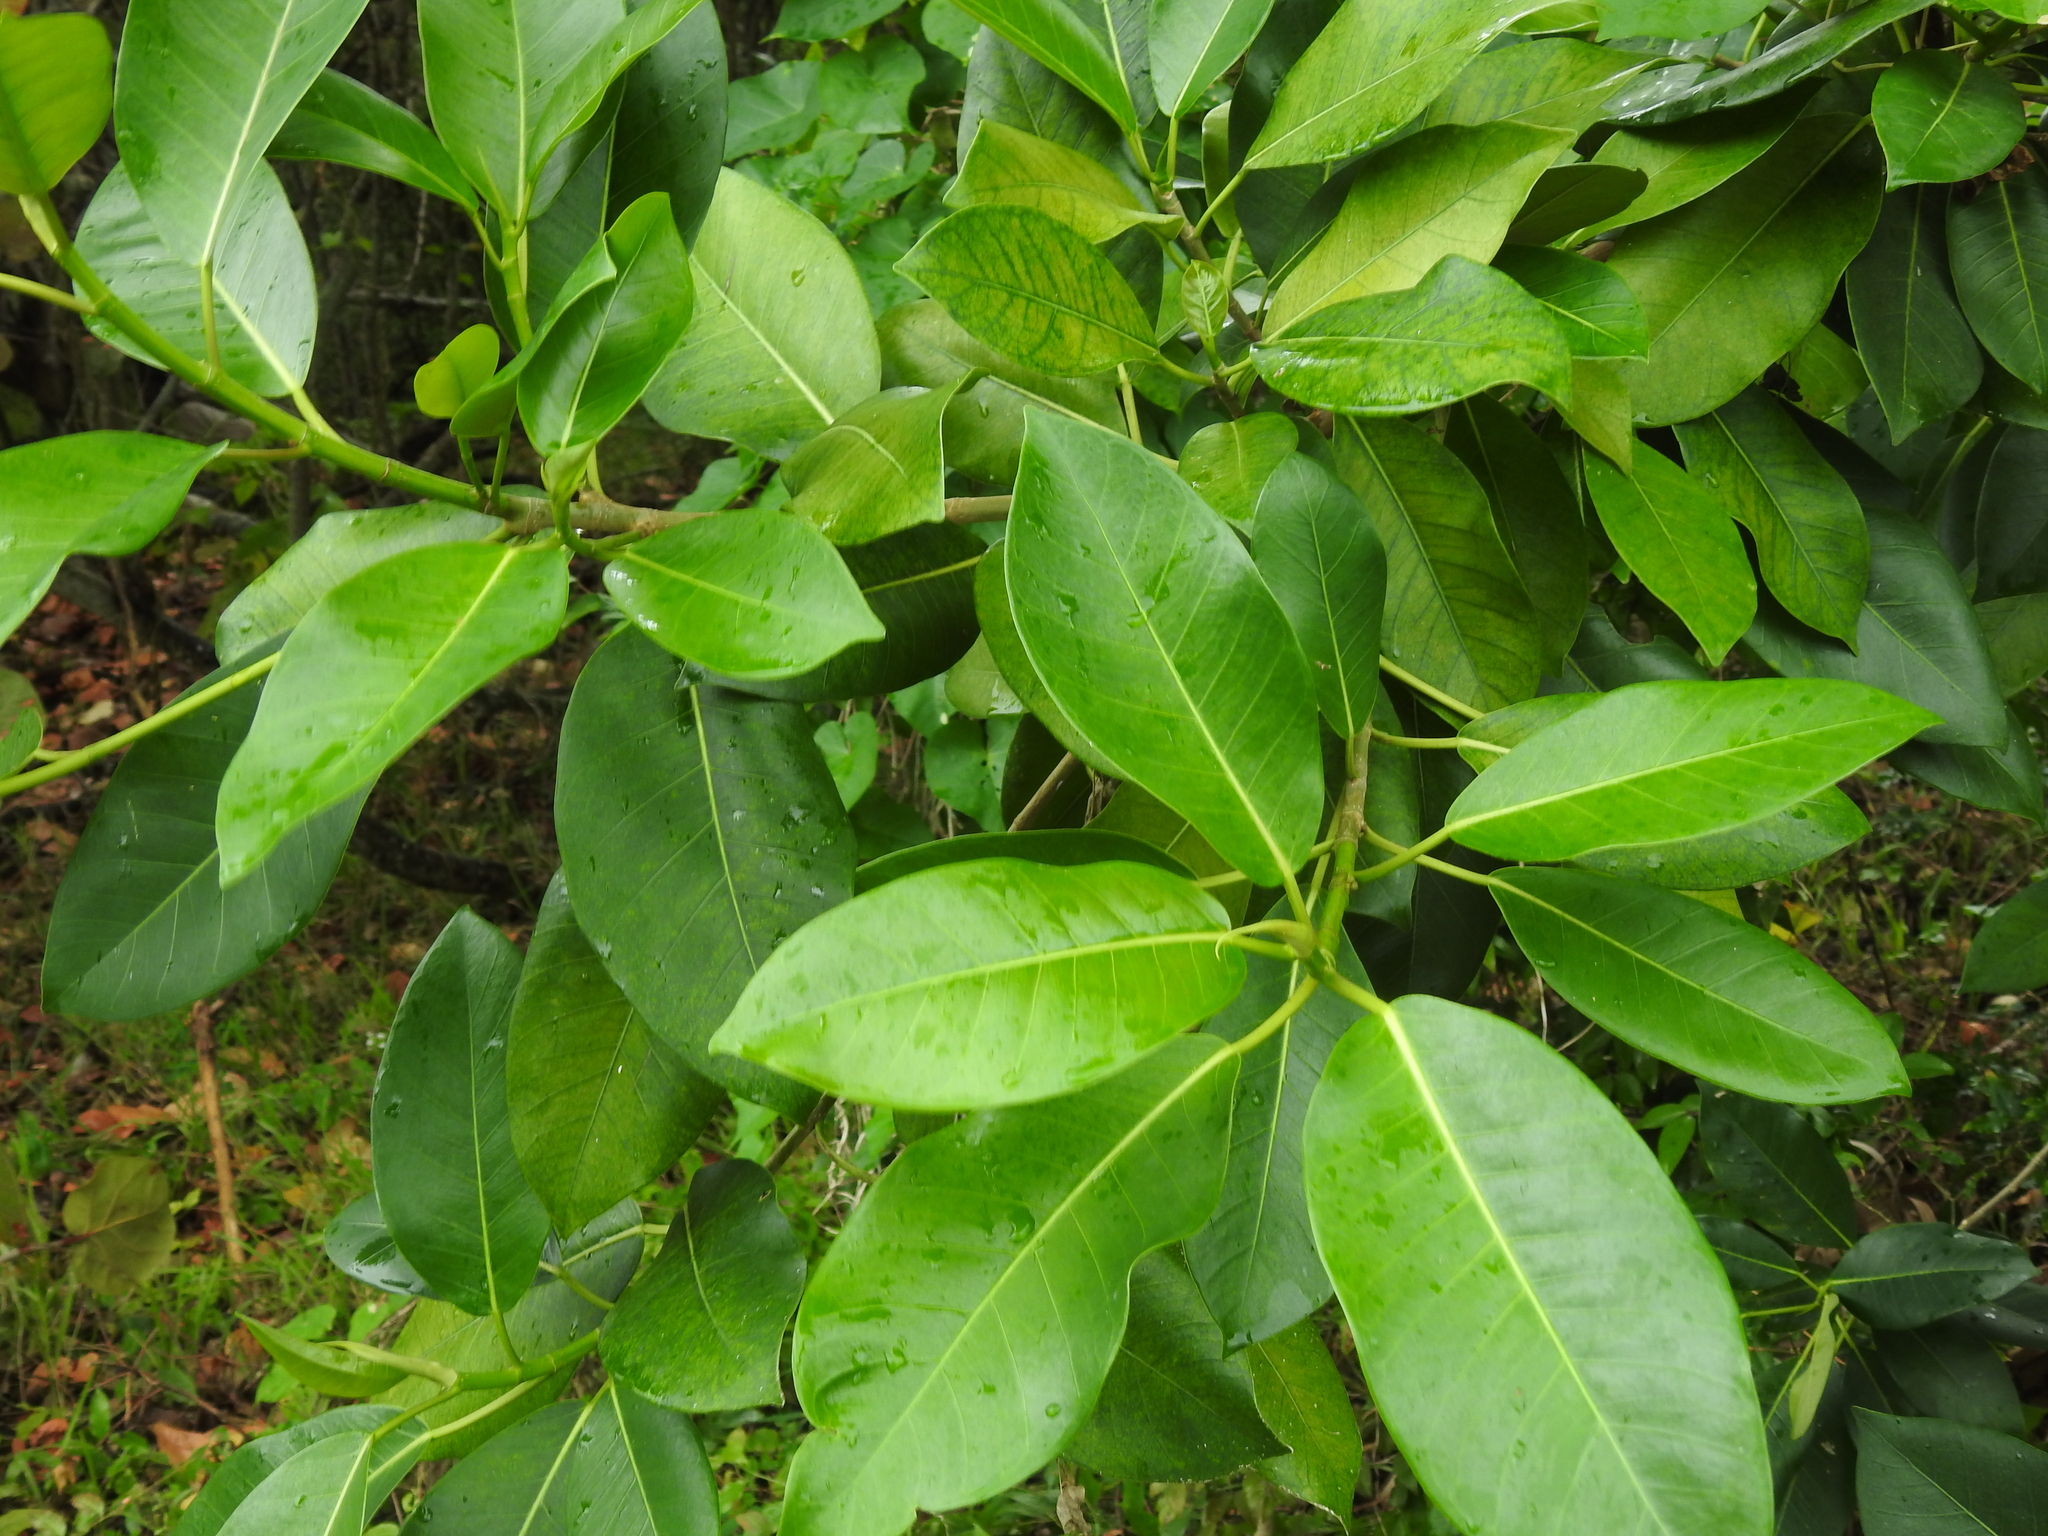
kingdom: Plantae
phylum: Tracheophyta
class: Magnoliopsida
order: Rosales
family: Moraceae
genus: Ficus
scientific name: Ficus aurea
